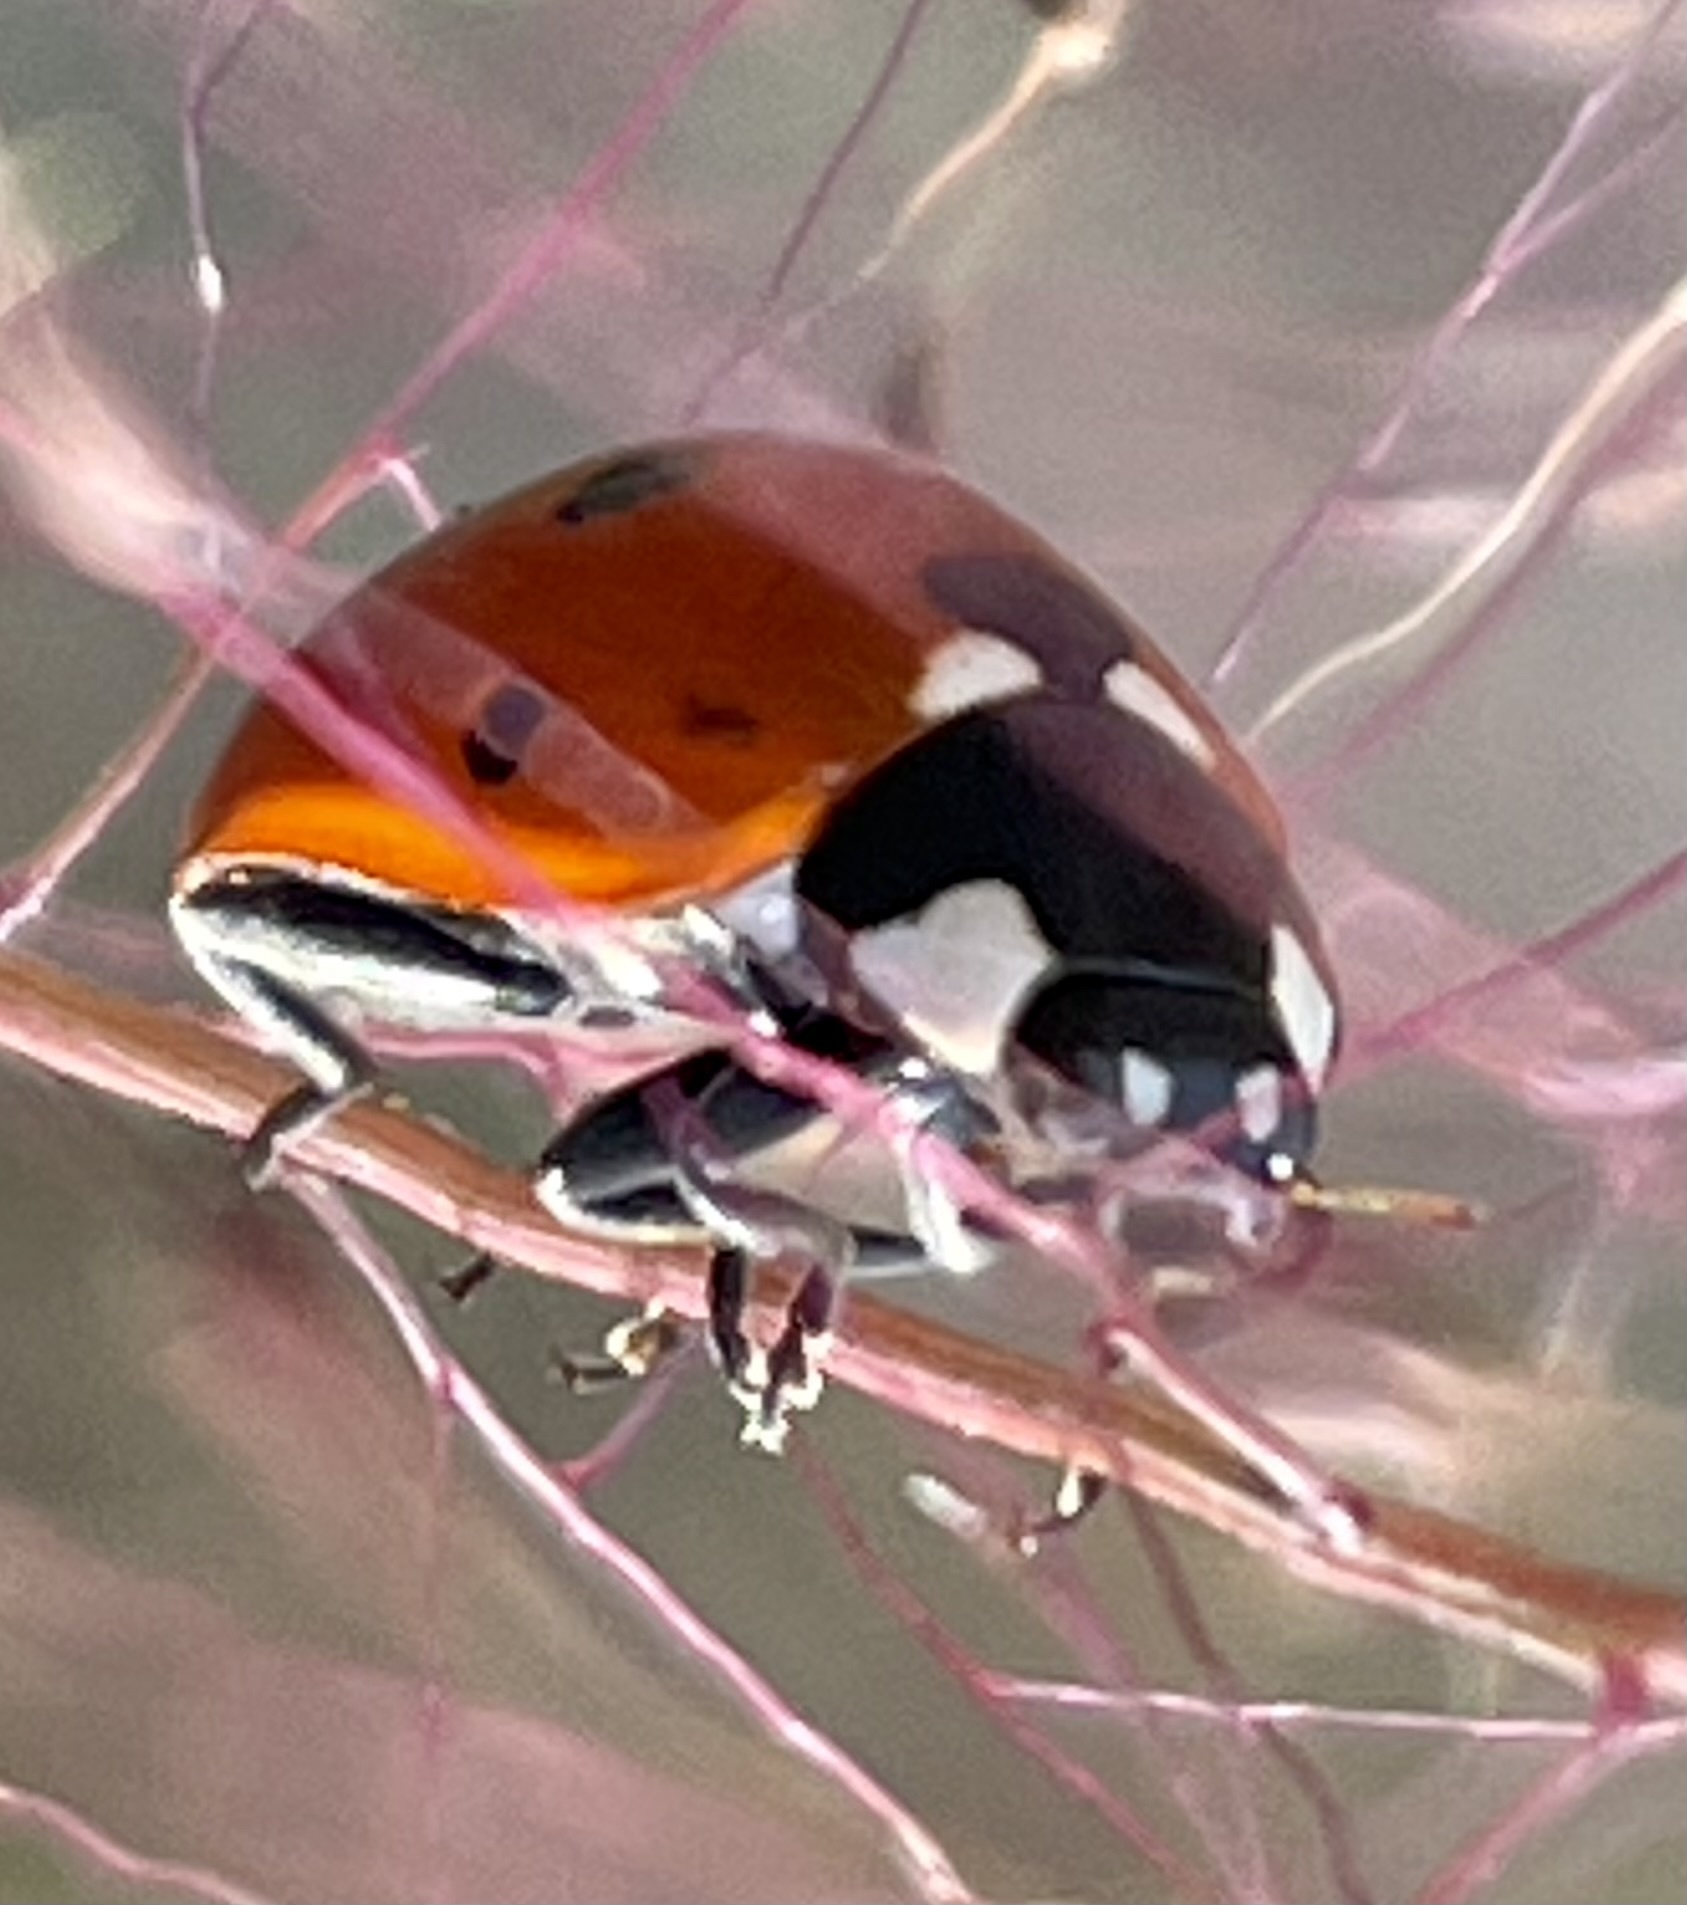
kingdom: Animalia
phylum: Arthropoda
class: Insecta
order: Coleoptera
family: Coccinellidae
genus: Coccinella
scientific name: Coccinella septempunctata
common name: Sevenspotted lady beetle
